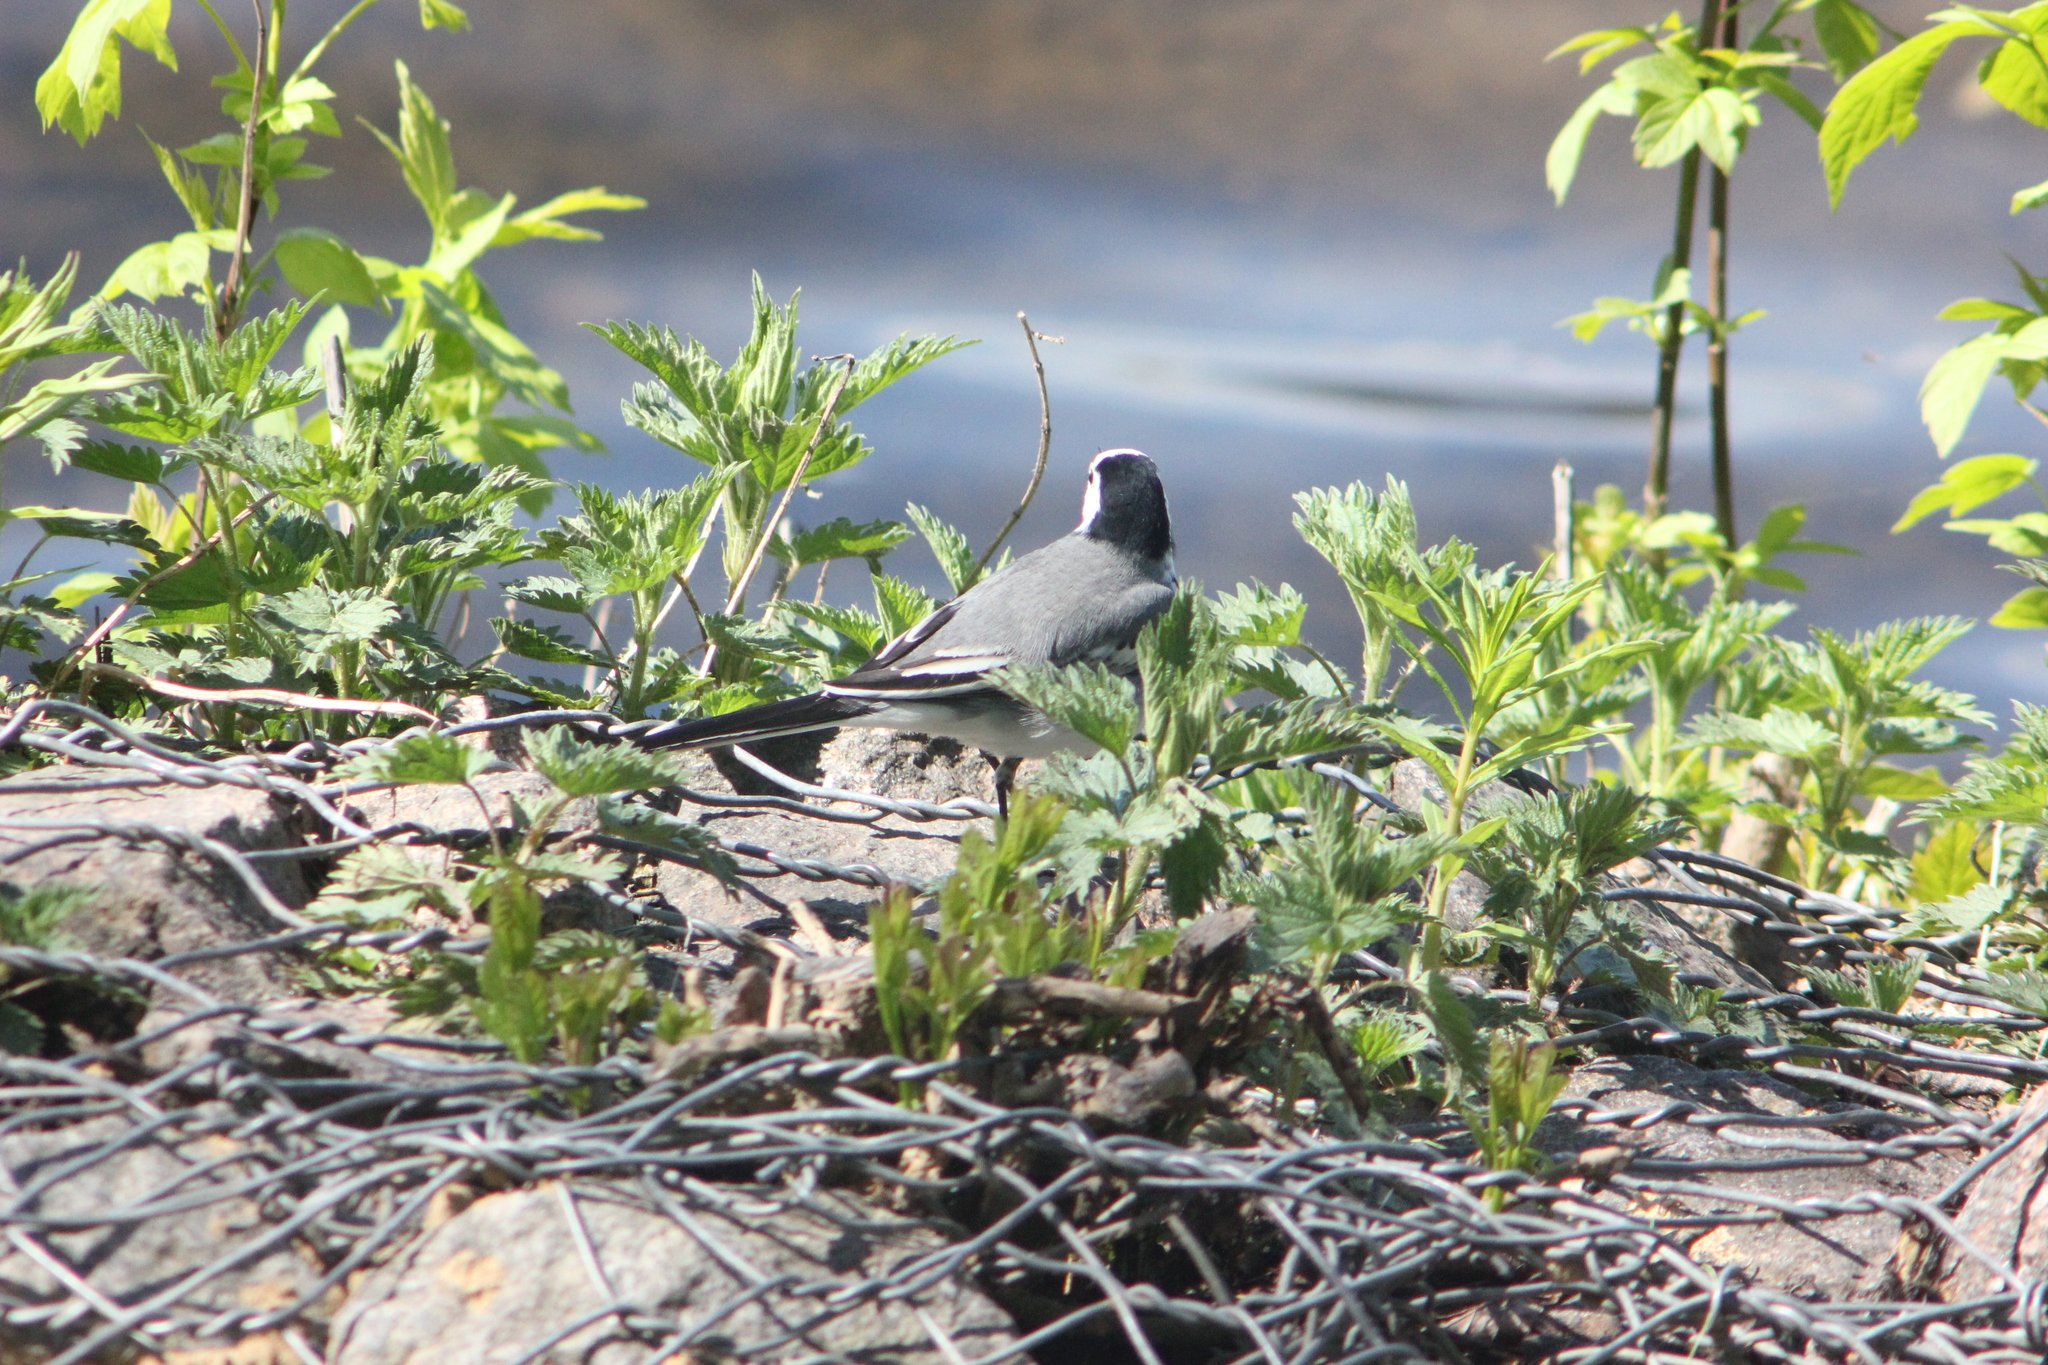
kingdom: Animalia
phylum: Chordata
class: Aves
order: Passeriformes
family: Motacillidae
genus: Motacilla
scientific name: Motacilla alba
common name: White wagtail
